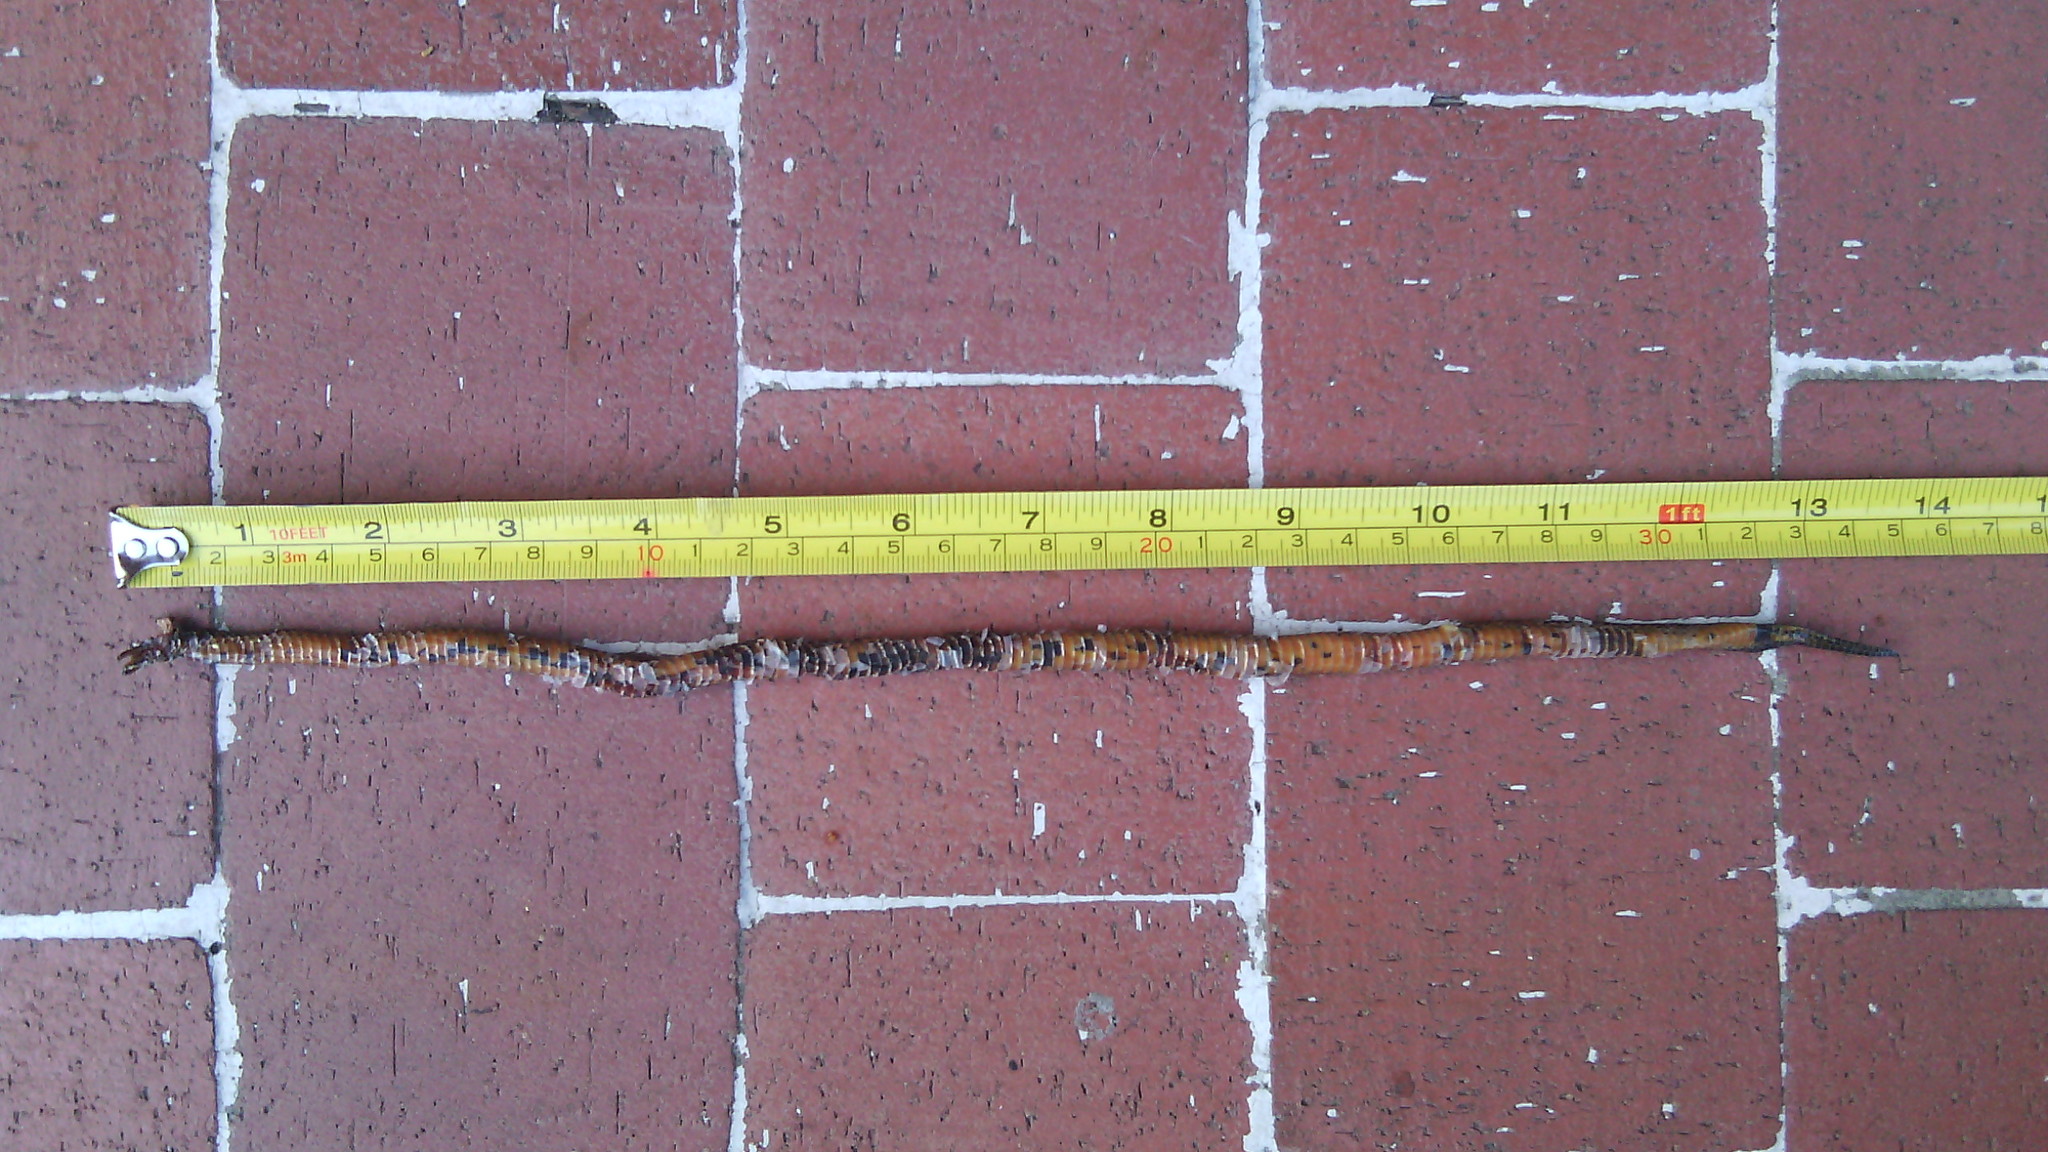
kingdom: Animalia
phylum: Chordata
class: Squamata
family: Colubridae
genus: Atractus
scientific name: Atractus crassicaudatus
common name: Thickhead ground snake
